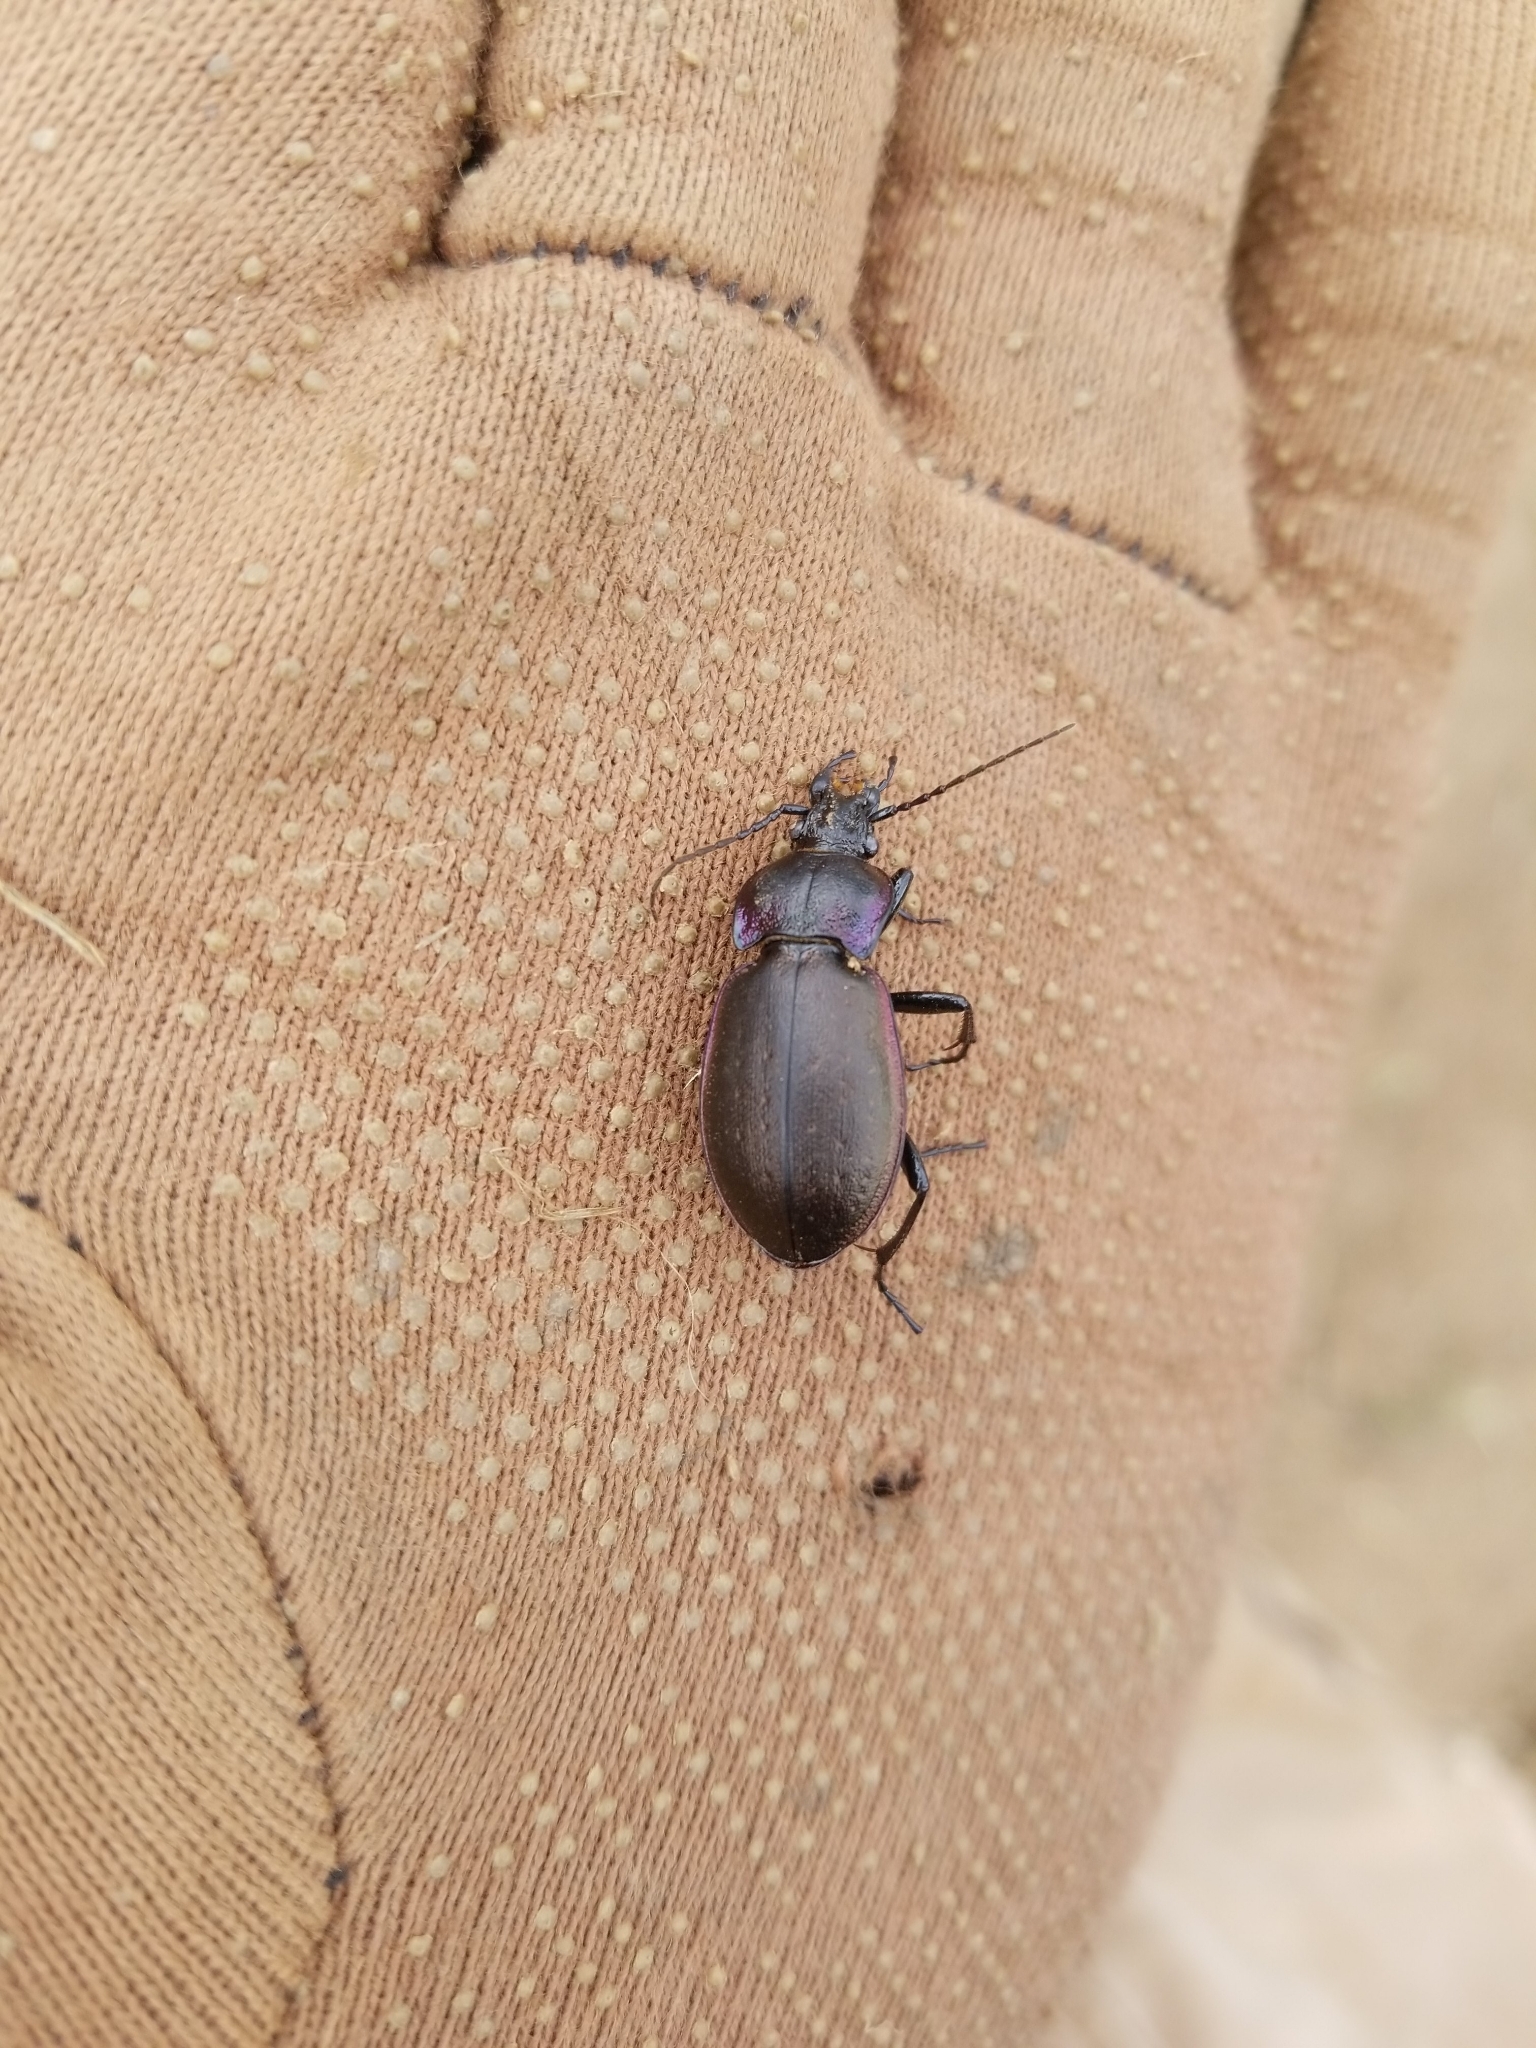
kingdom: Animalia
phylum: Arthropoda
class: Insecta
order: Coleoptera
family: Carabidae
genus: Carabus
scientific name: Carabus nemoralis
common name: European ground beetle
